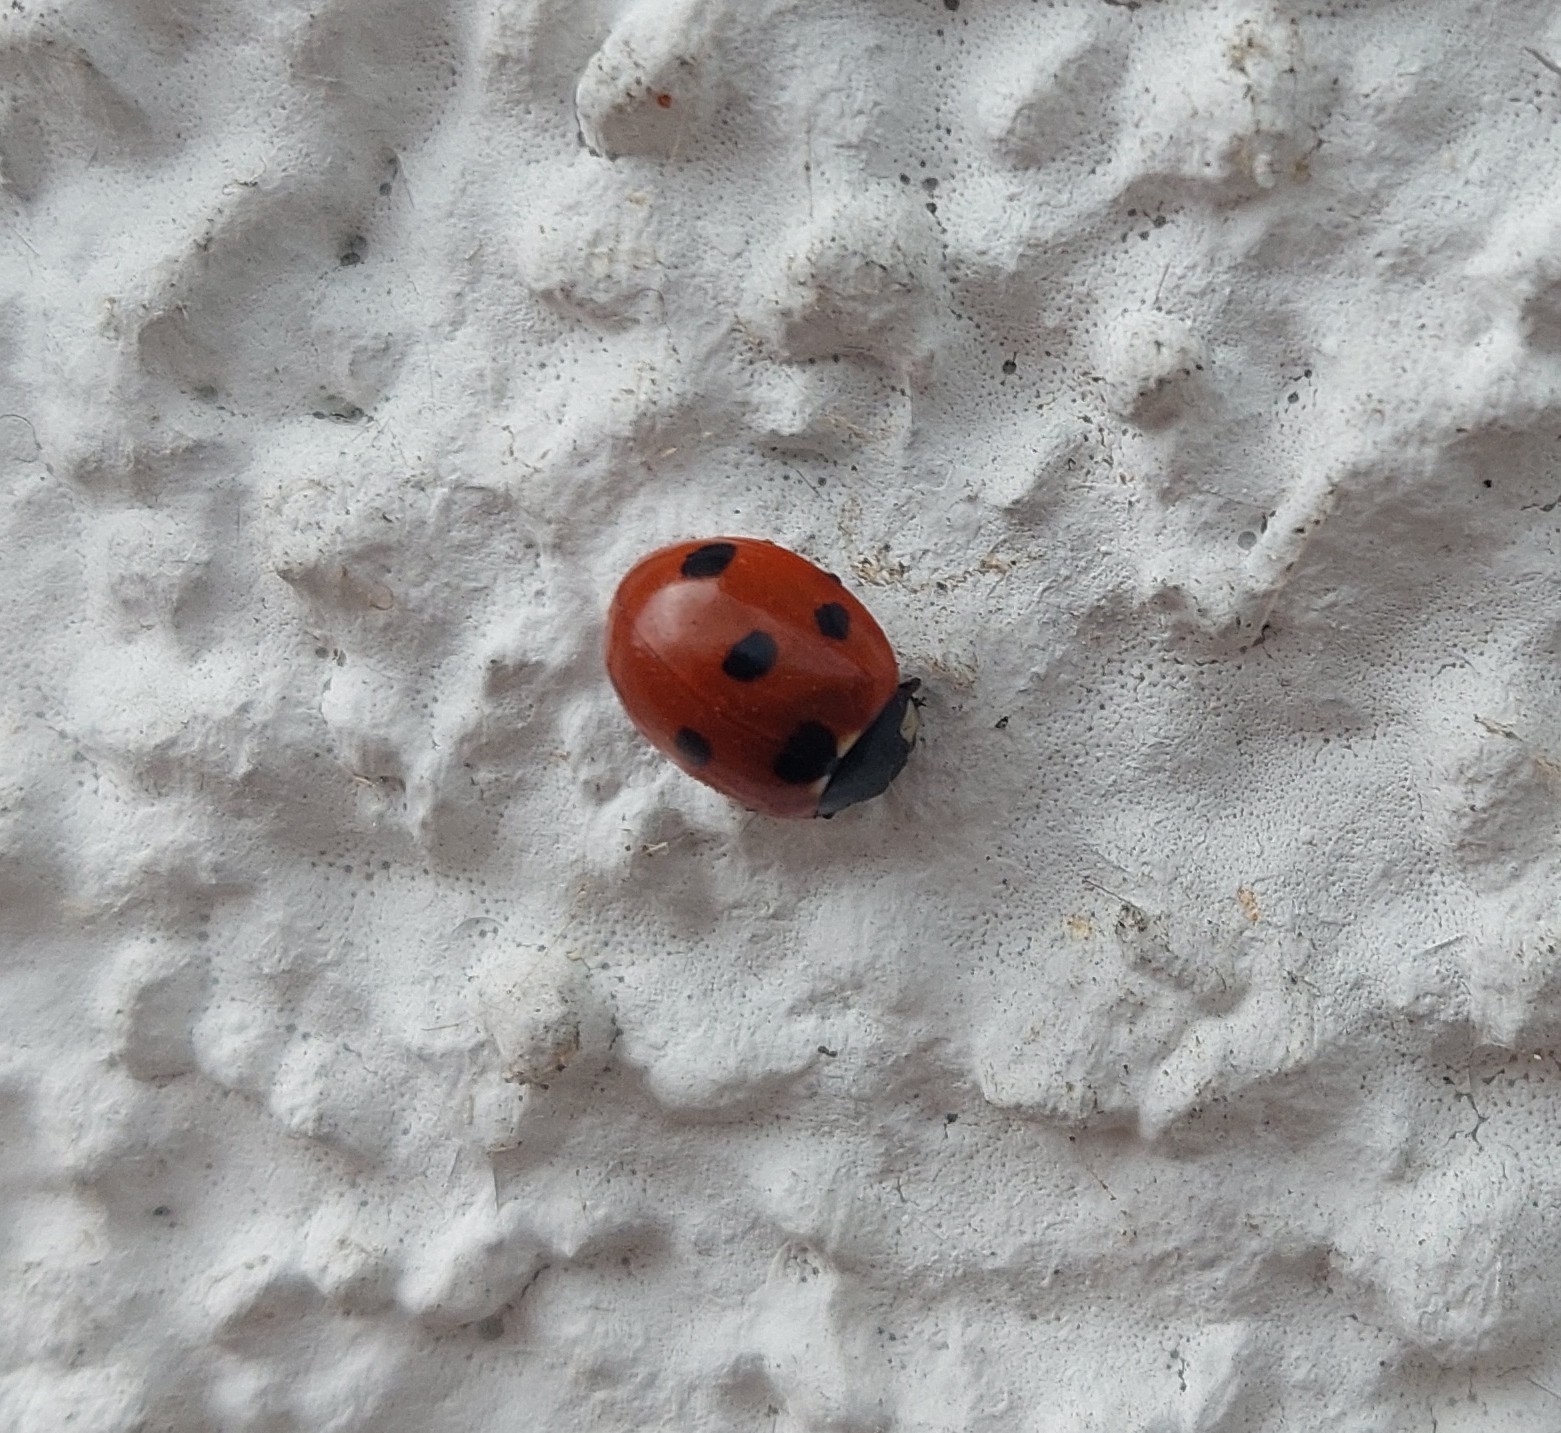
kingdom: Animalia
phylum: Arthropoda
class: Insecta
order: Coleoptera
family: Coccinellidae
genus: Coccinella
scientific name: Coccinella septempunctata
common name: Sevenspotted lady beetle
